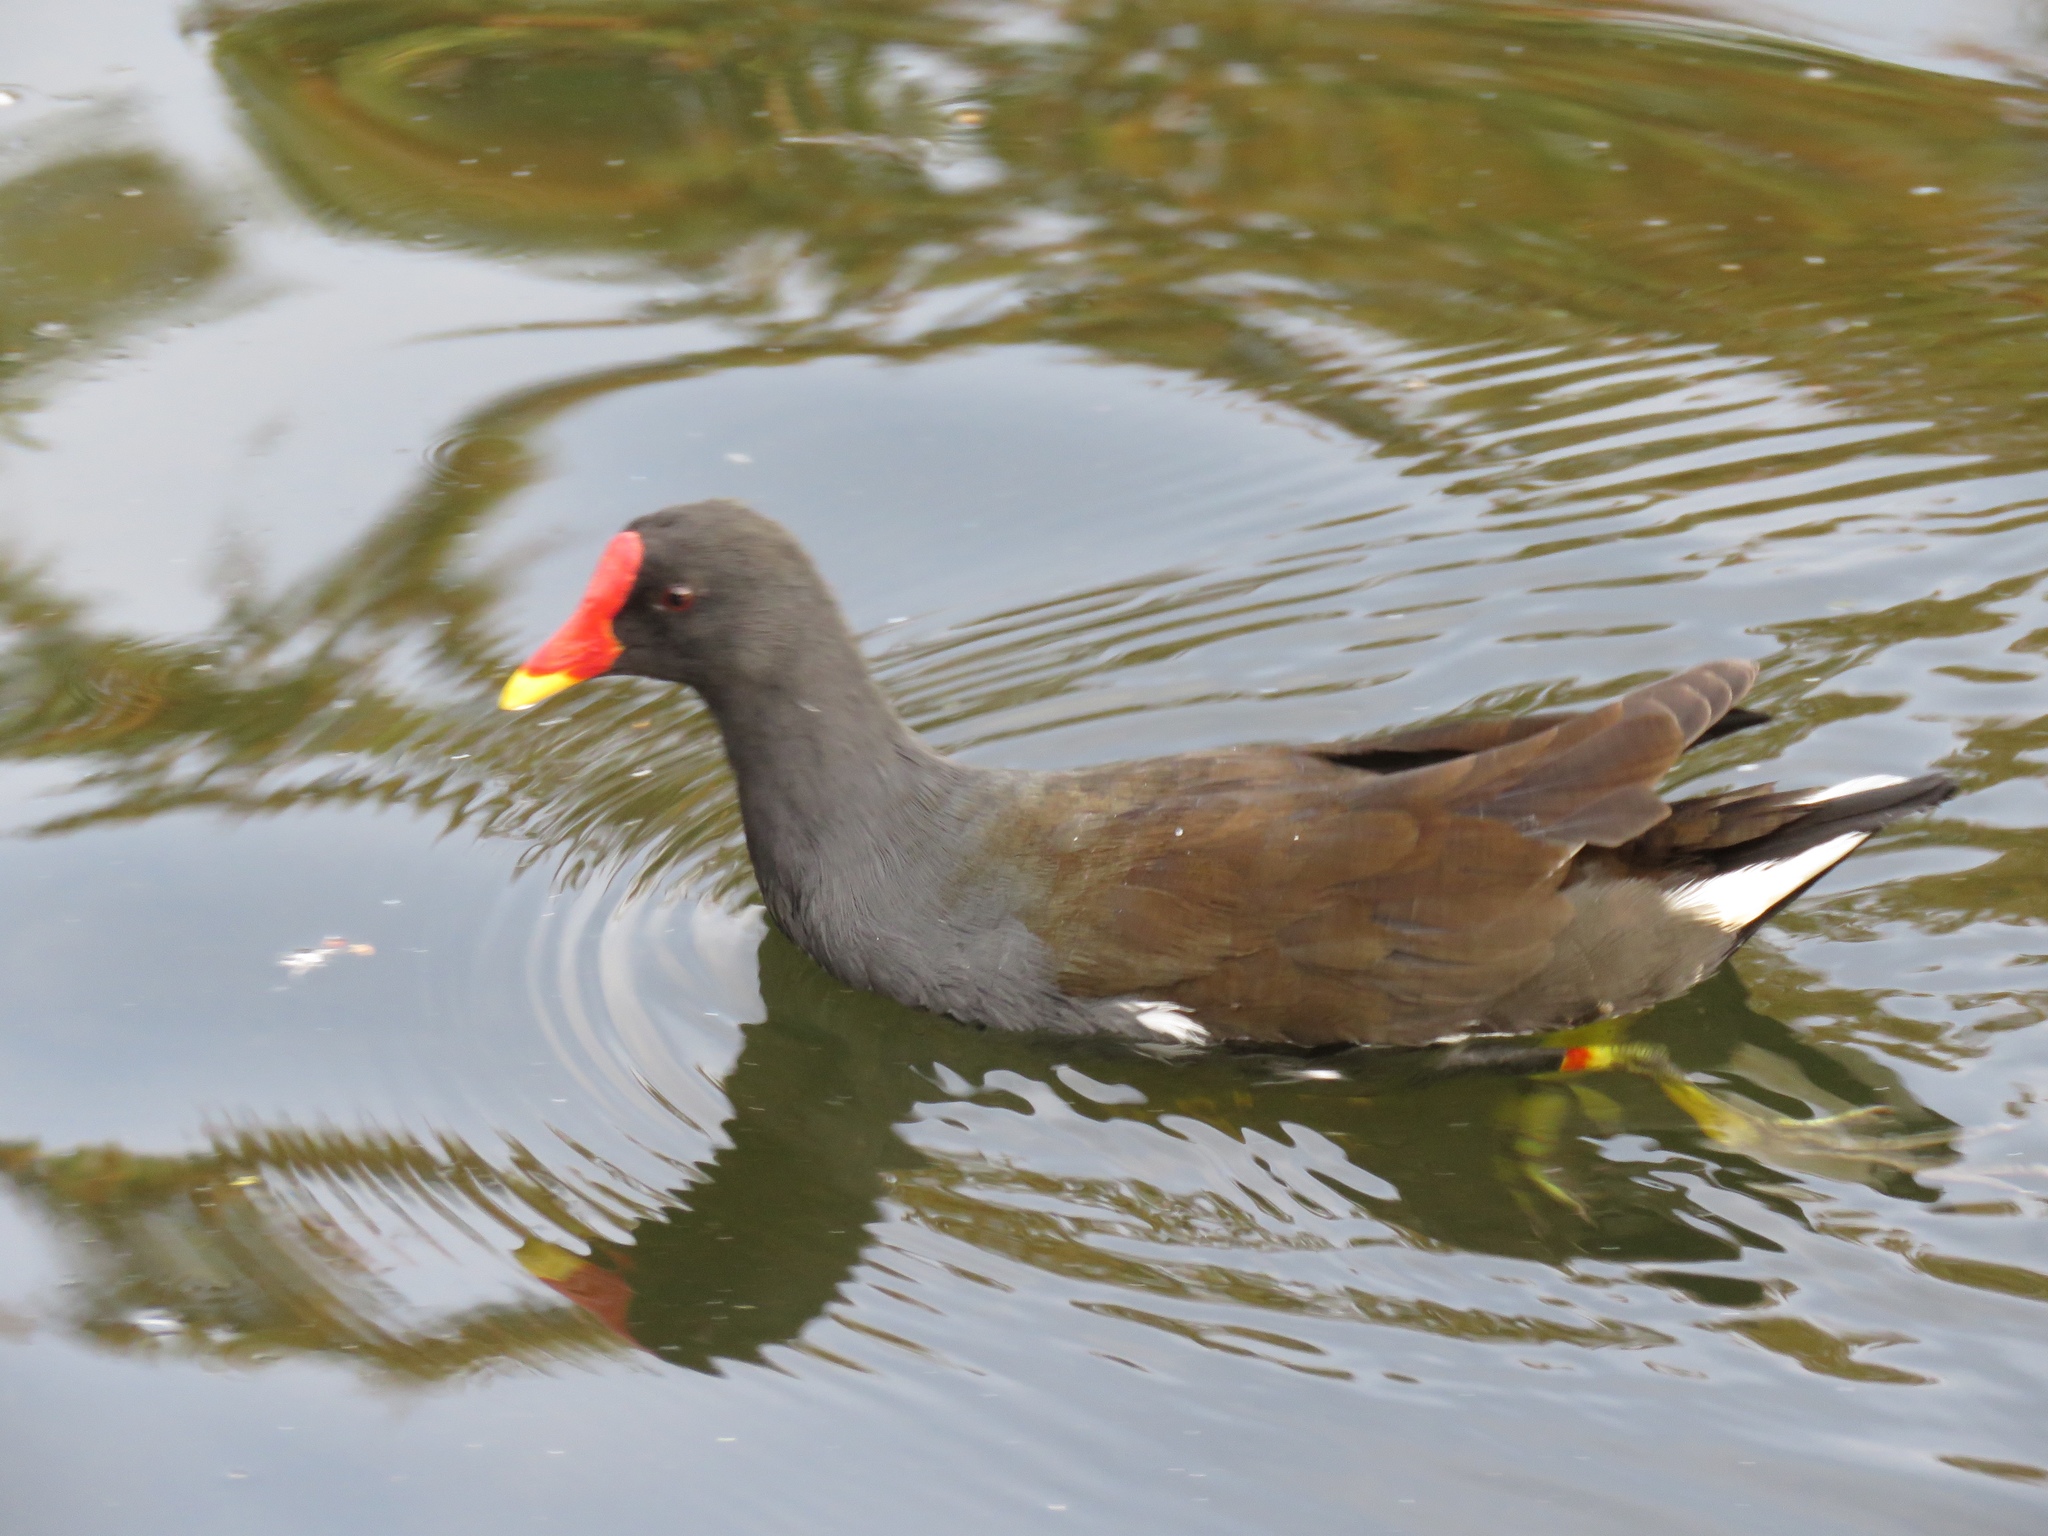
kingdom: Animalia
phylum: Chordata
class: Aves
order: Gruiformes
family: Rallidae
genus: Gallinula
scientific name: Gallinula chloropus
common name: Common moorhen
